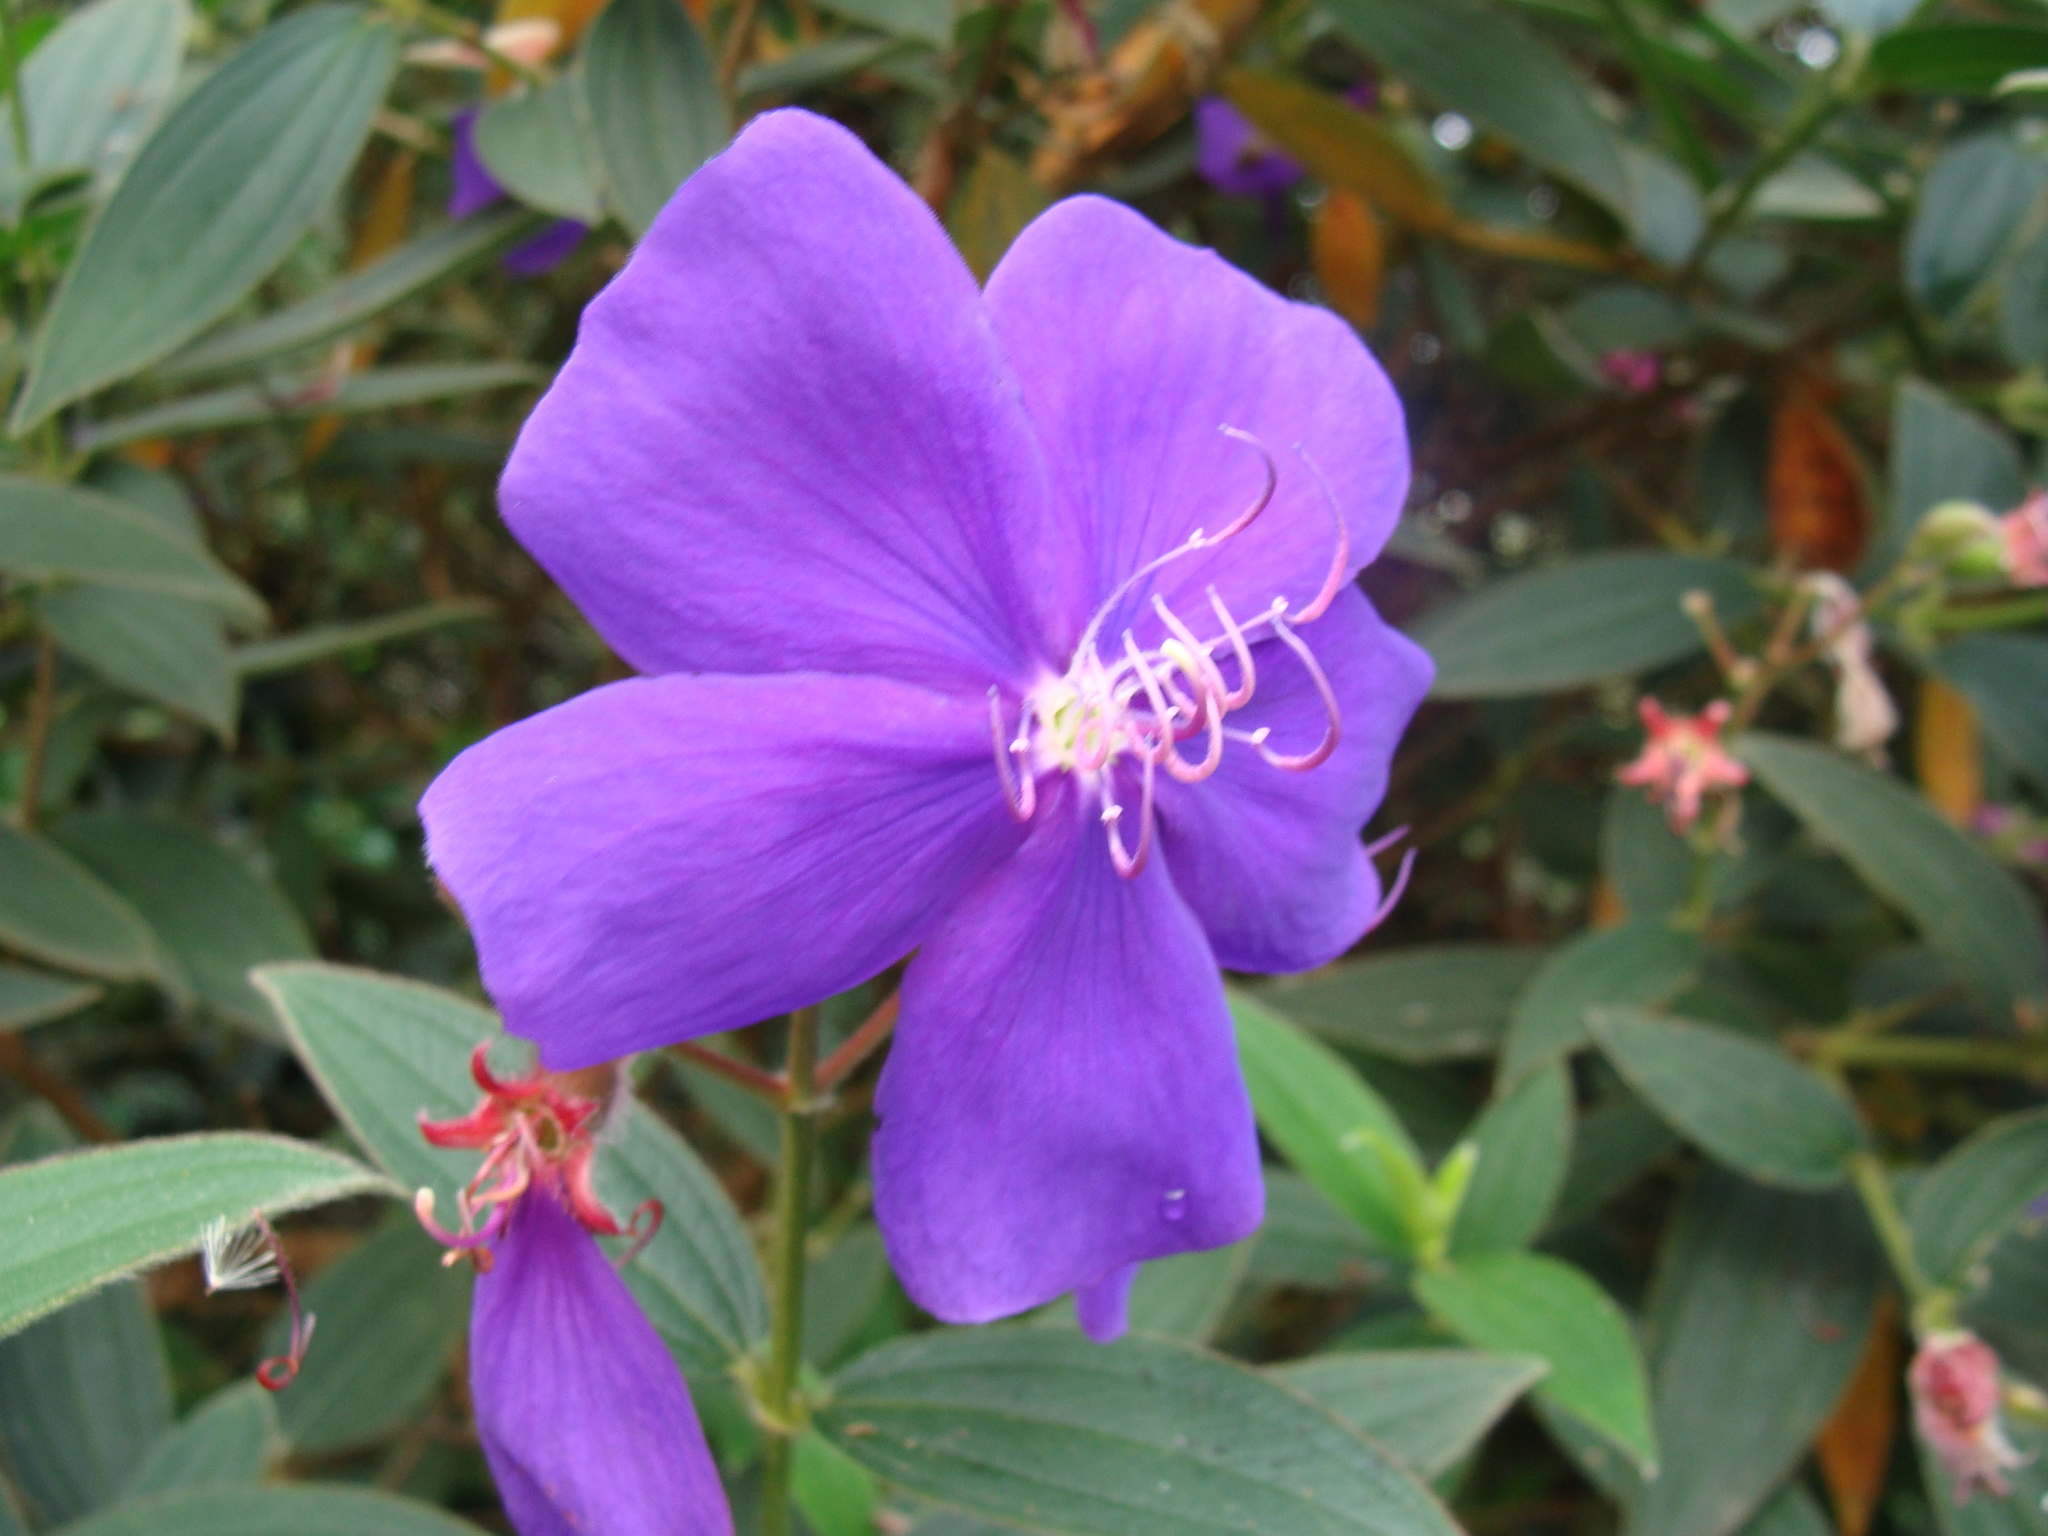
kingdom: Plantae
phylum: Tracheophyta
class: Magnoliopsida
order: Myrtales
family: Melastomataceae
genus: Pleroma
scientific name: Pleroma urvilleanum
